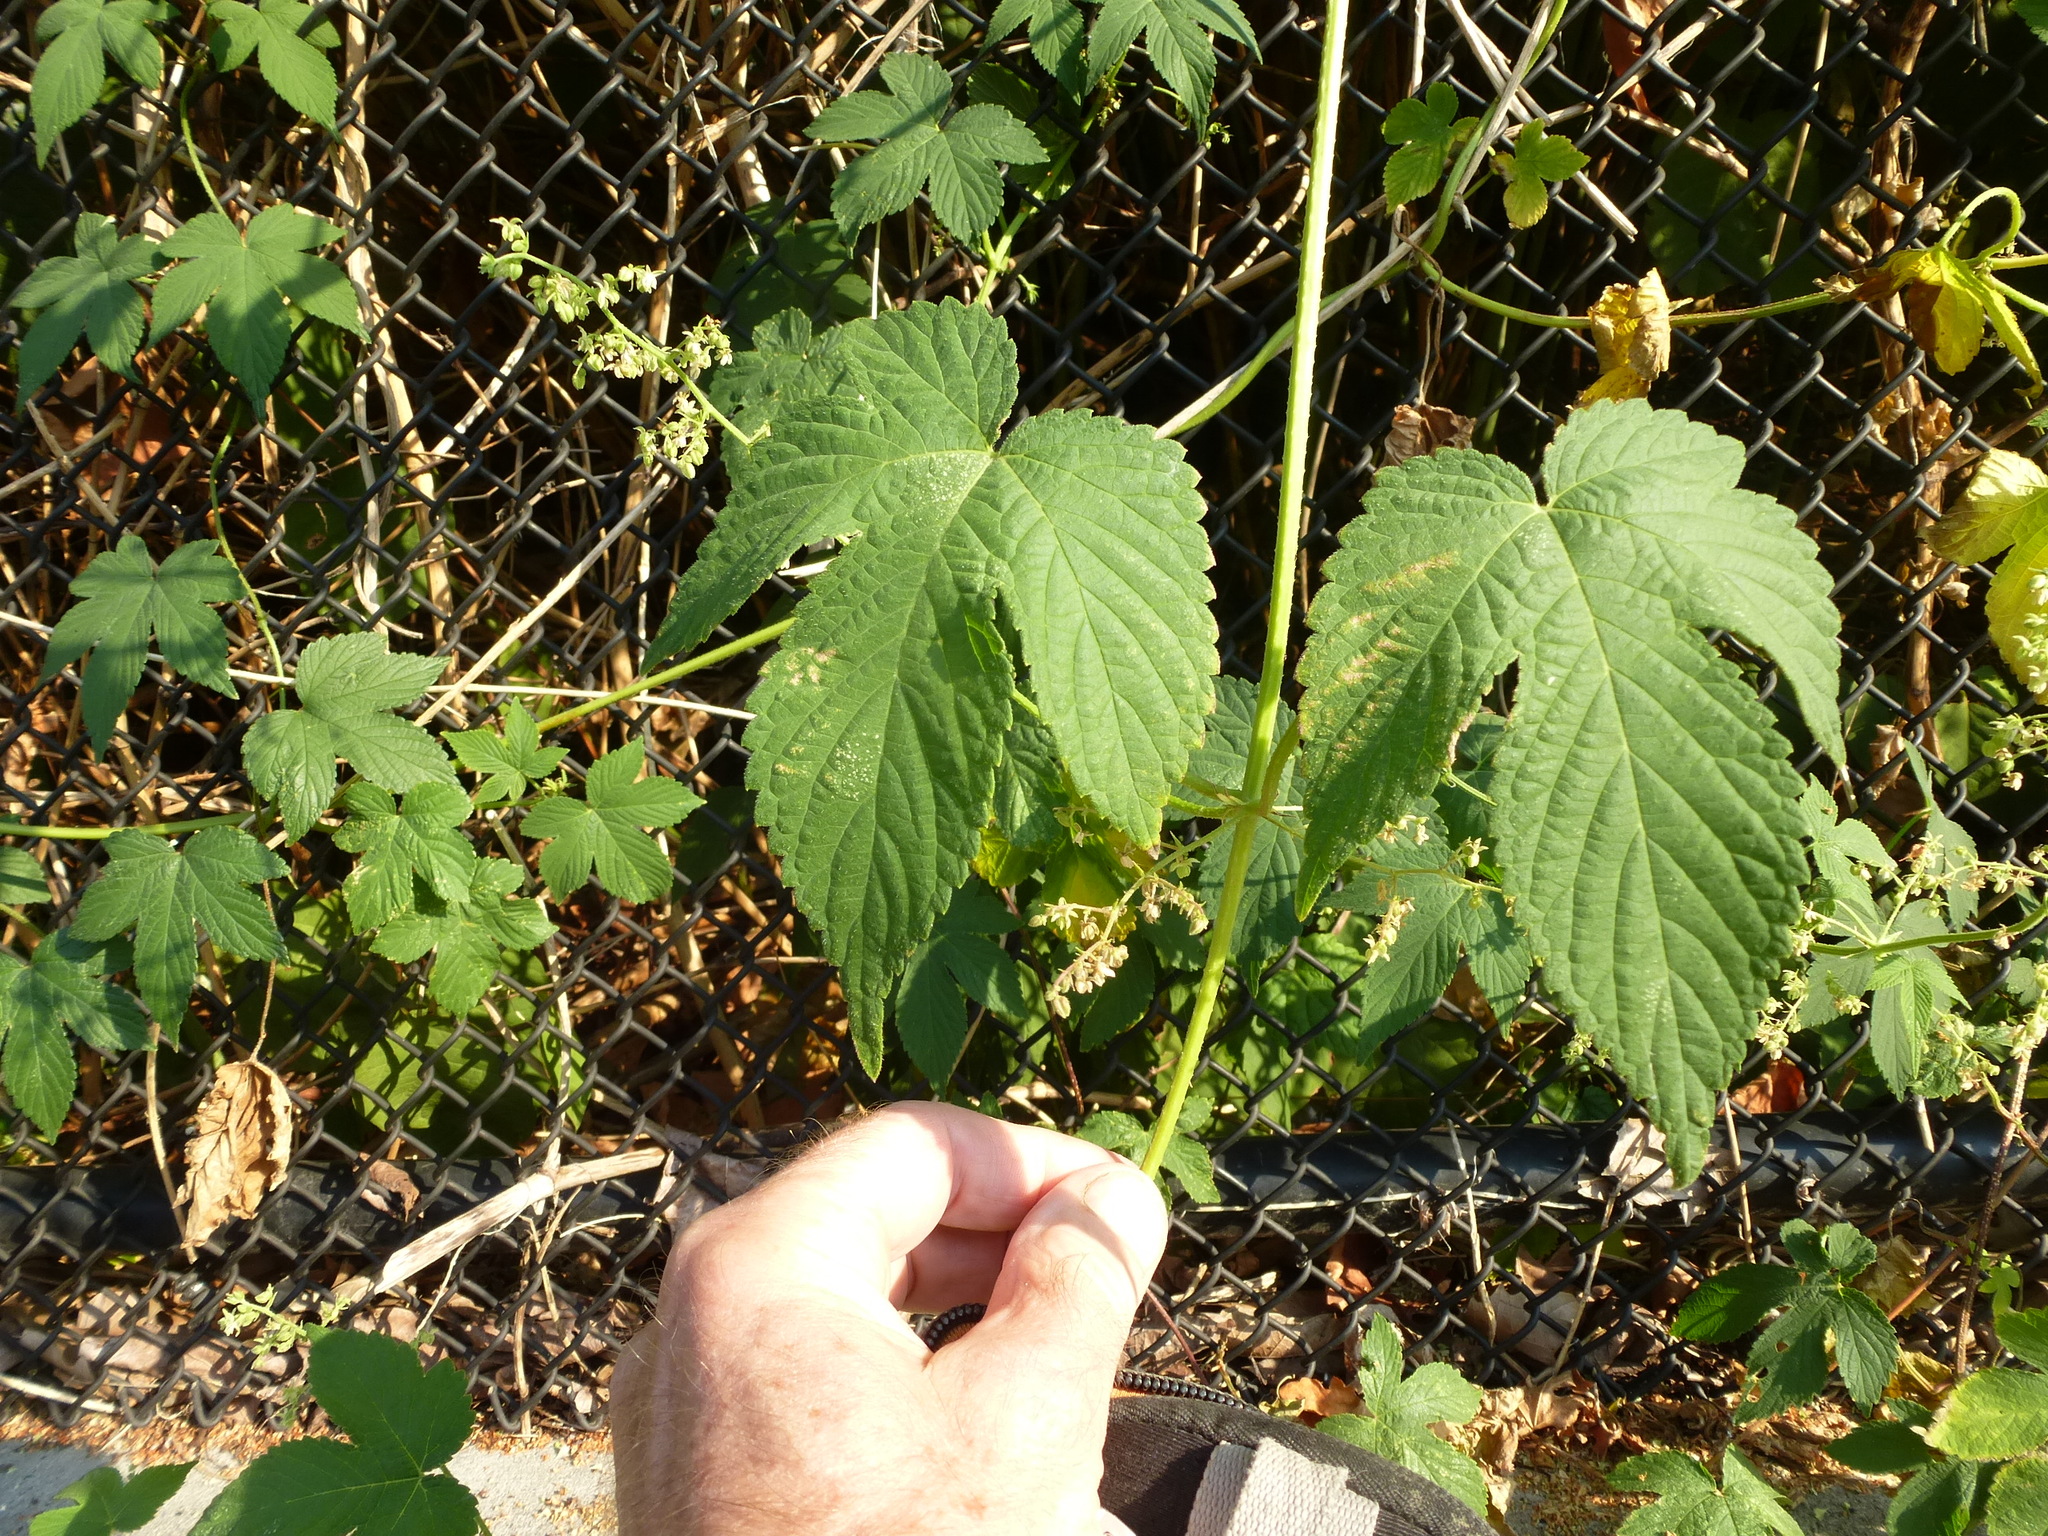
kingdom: Plantae
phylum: Tracheophyta
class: Magnoliopsida
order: Rosales
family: Cannabaceae
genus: Humulus
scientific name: Humulus scandens
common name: Japanese hop
